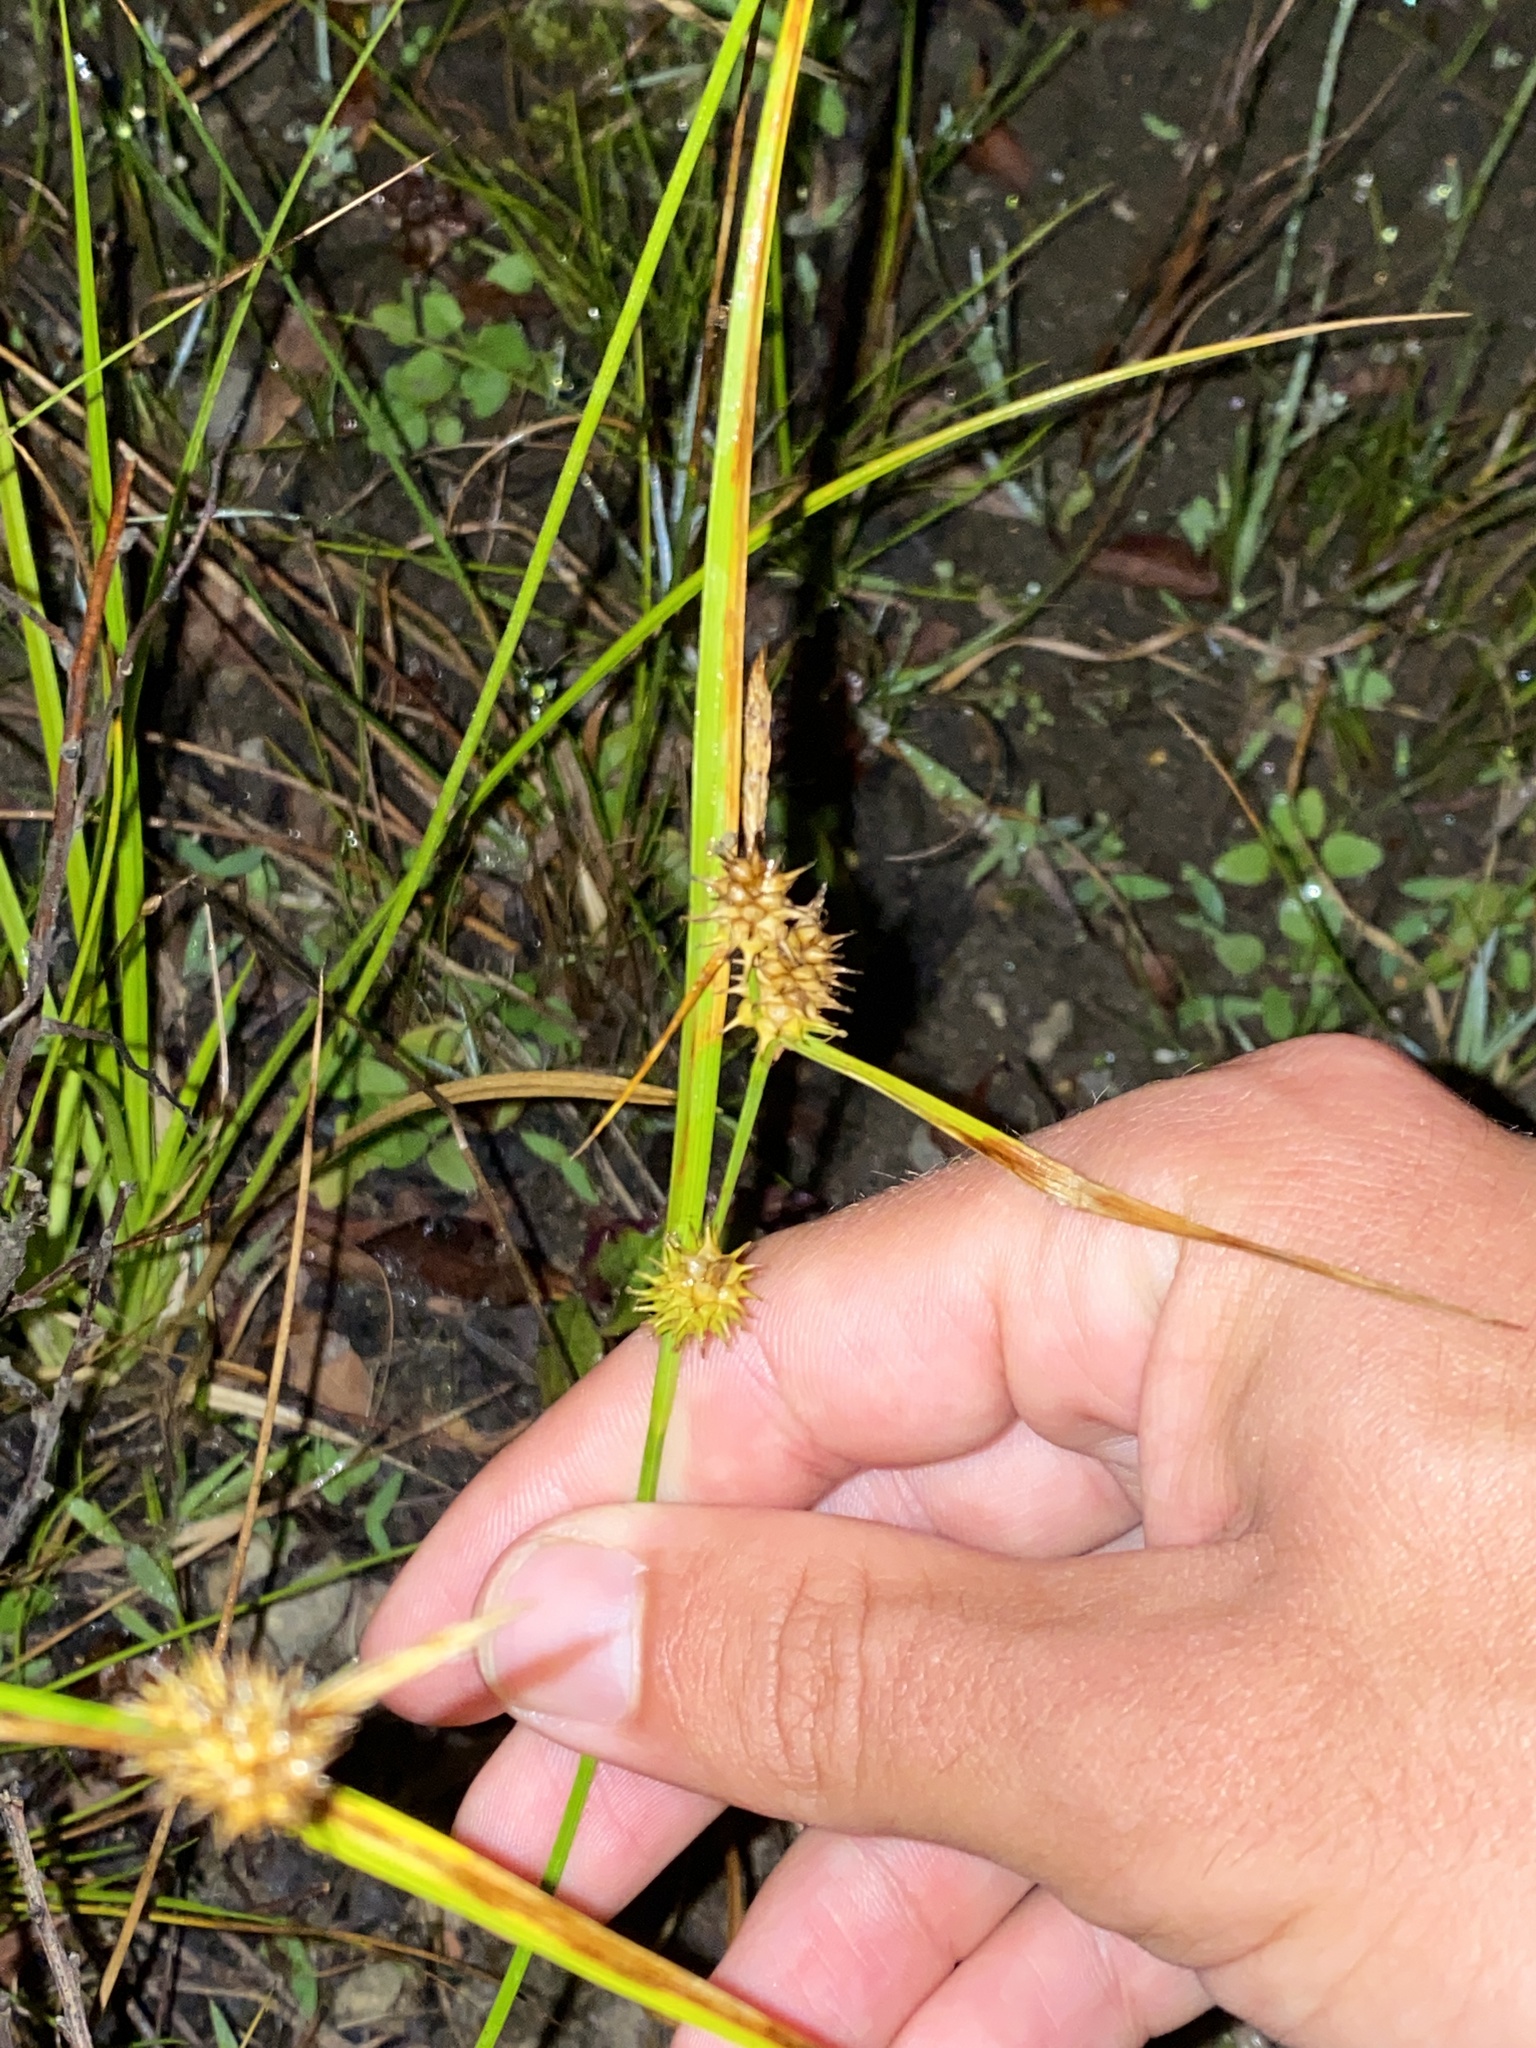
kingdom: Plantae
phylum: Tracheophyta
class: Liliopsida
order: Poales
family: Cyperaceae
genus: Carex
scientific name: Carex cryptolepis
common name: Northeastern sedge
